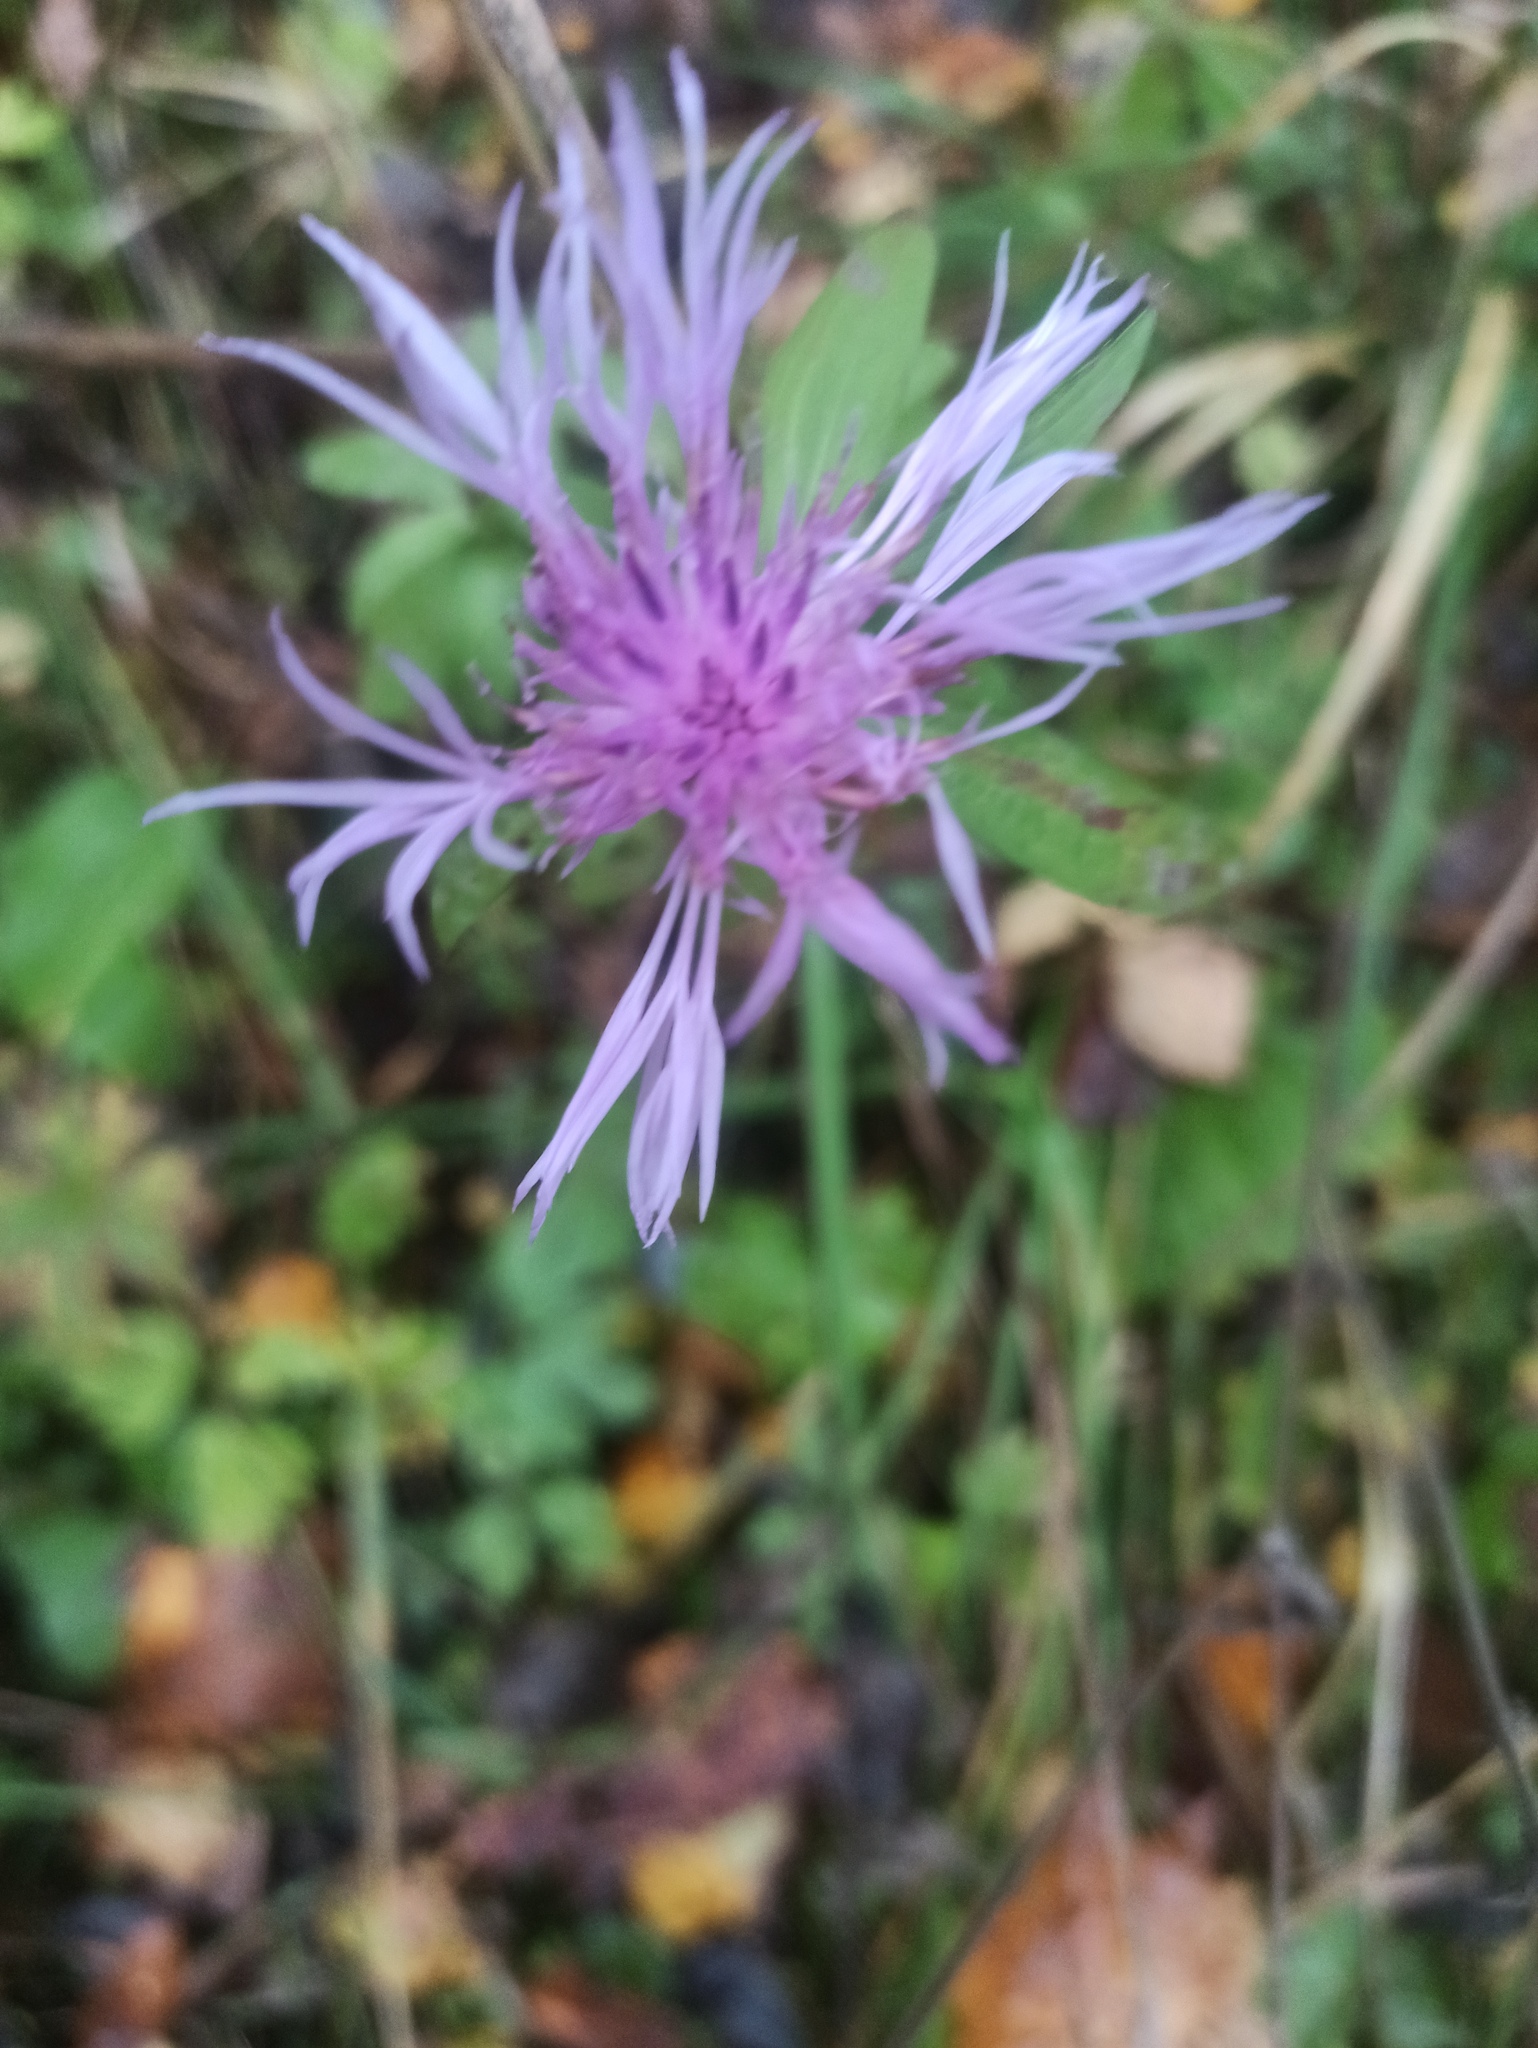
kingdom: Plantae
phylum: Tracheophyta
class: Magnoliopsida
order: Asterales
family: Asteraceae
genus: Centaurea
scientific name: Centaurea jacea
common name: Brown knapweed
